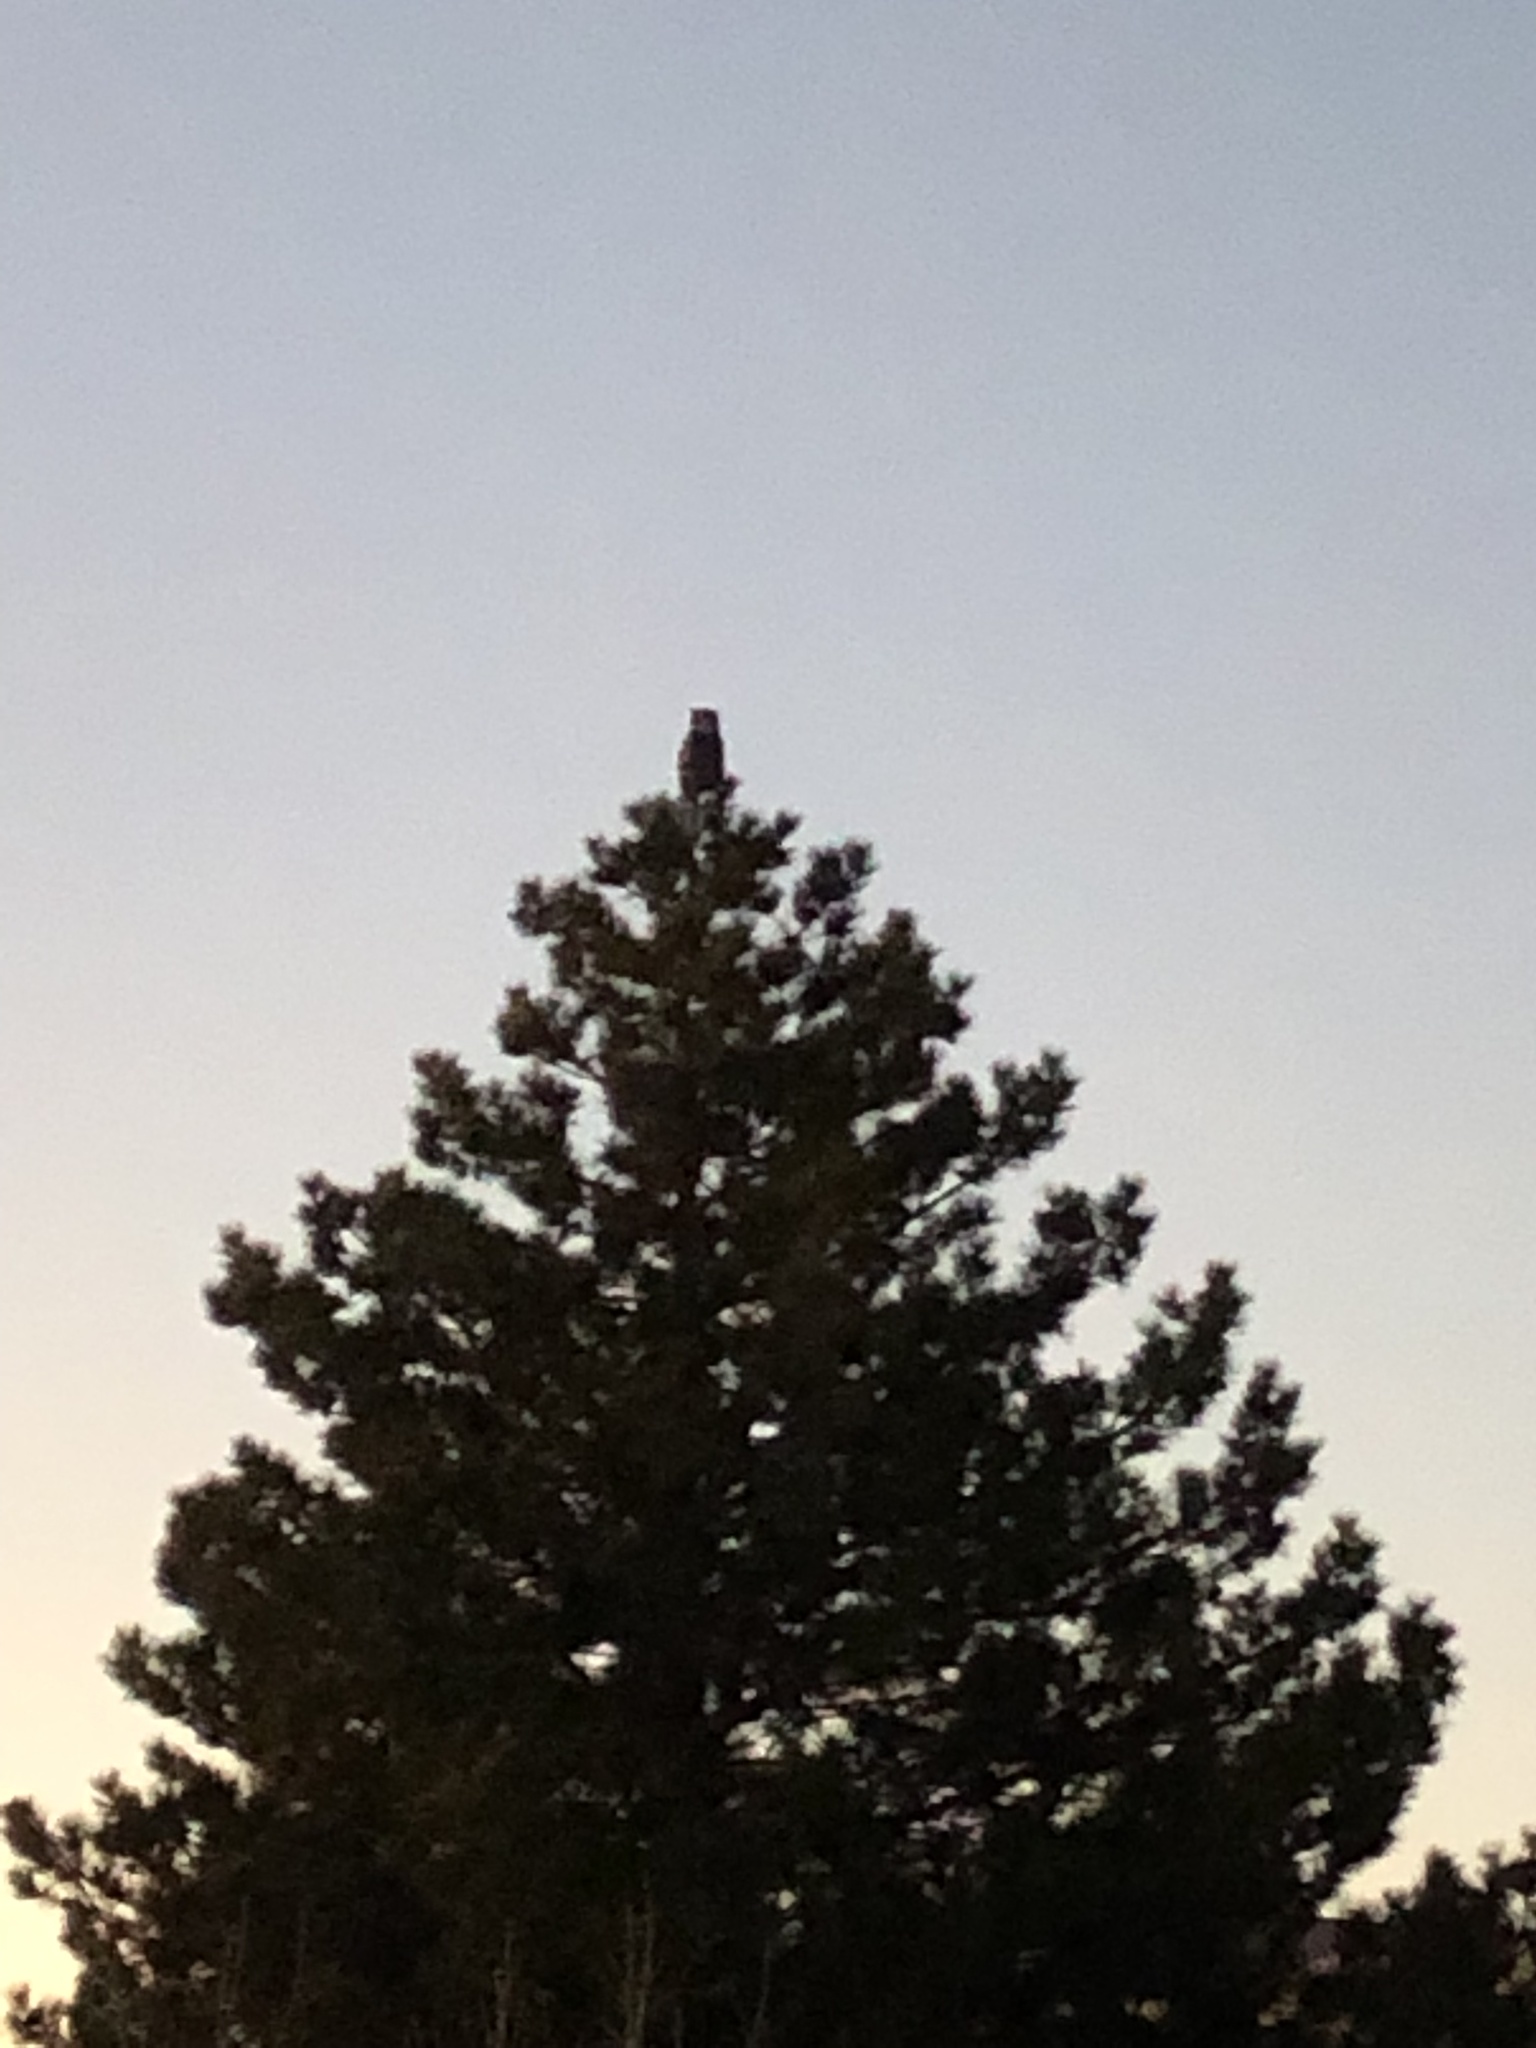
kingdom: Animalia
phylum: Chordata
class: Aves
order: Strigiformes
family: Strigidae
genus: Bubo
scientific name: Bubo virginianus
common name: Great horned owl
